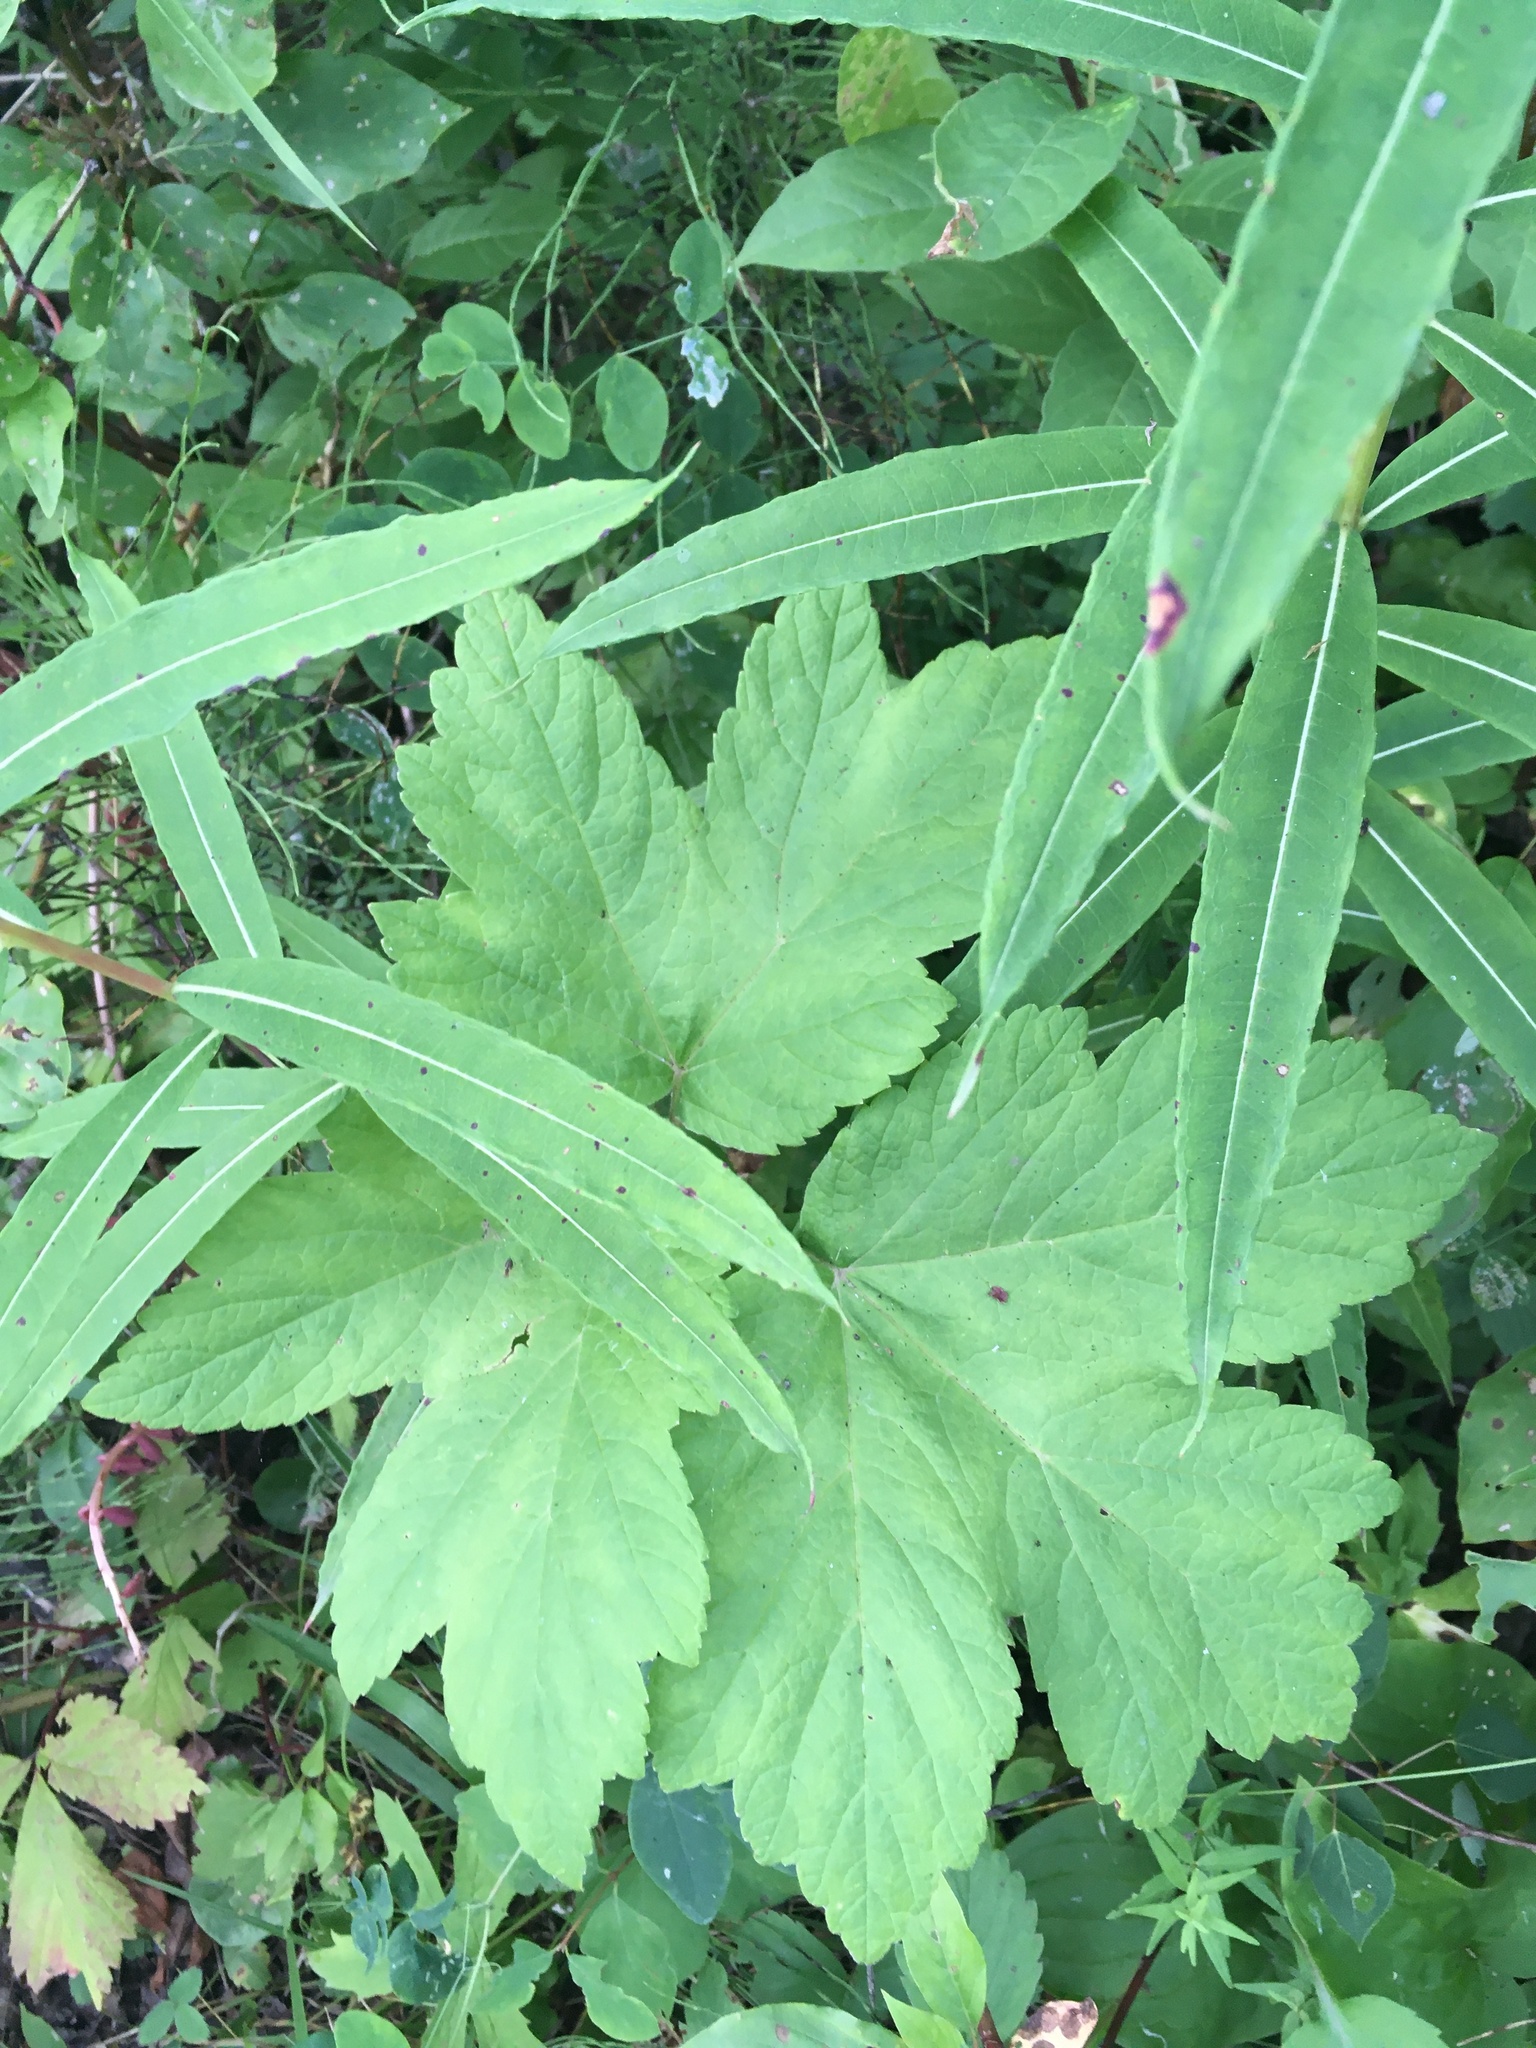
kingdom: Plantae
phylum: Tracheophyta
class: Magnoliopsida
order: Apiales
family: Apiaceae
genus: Heracleum
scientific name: Heracleum maximum
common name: American cow parsnip
